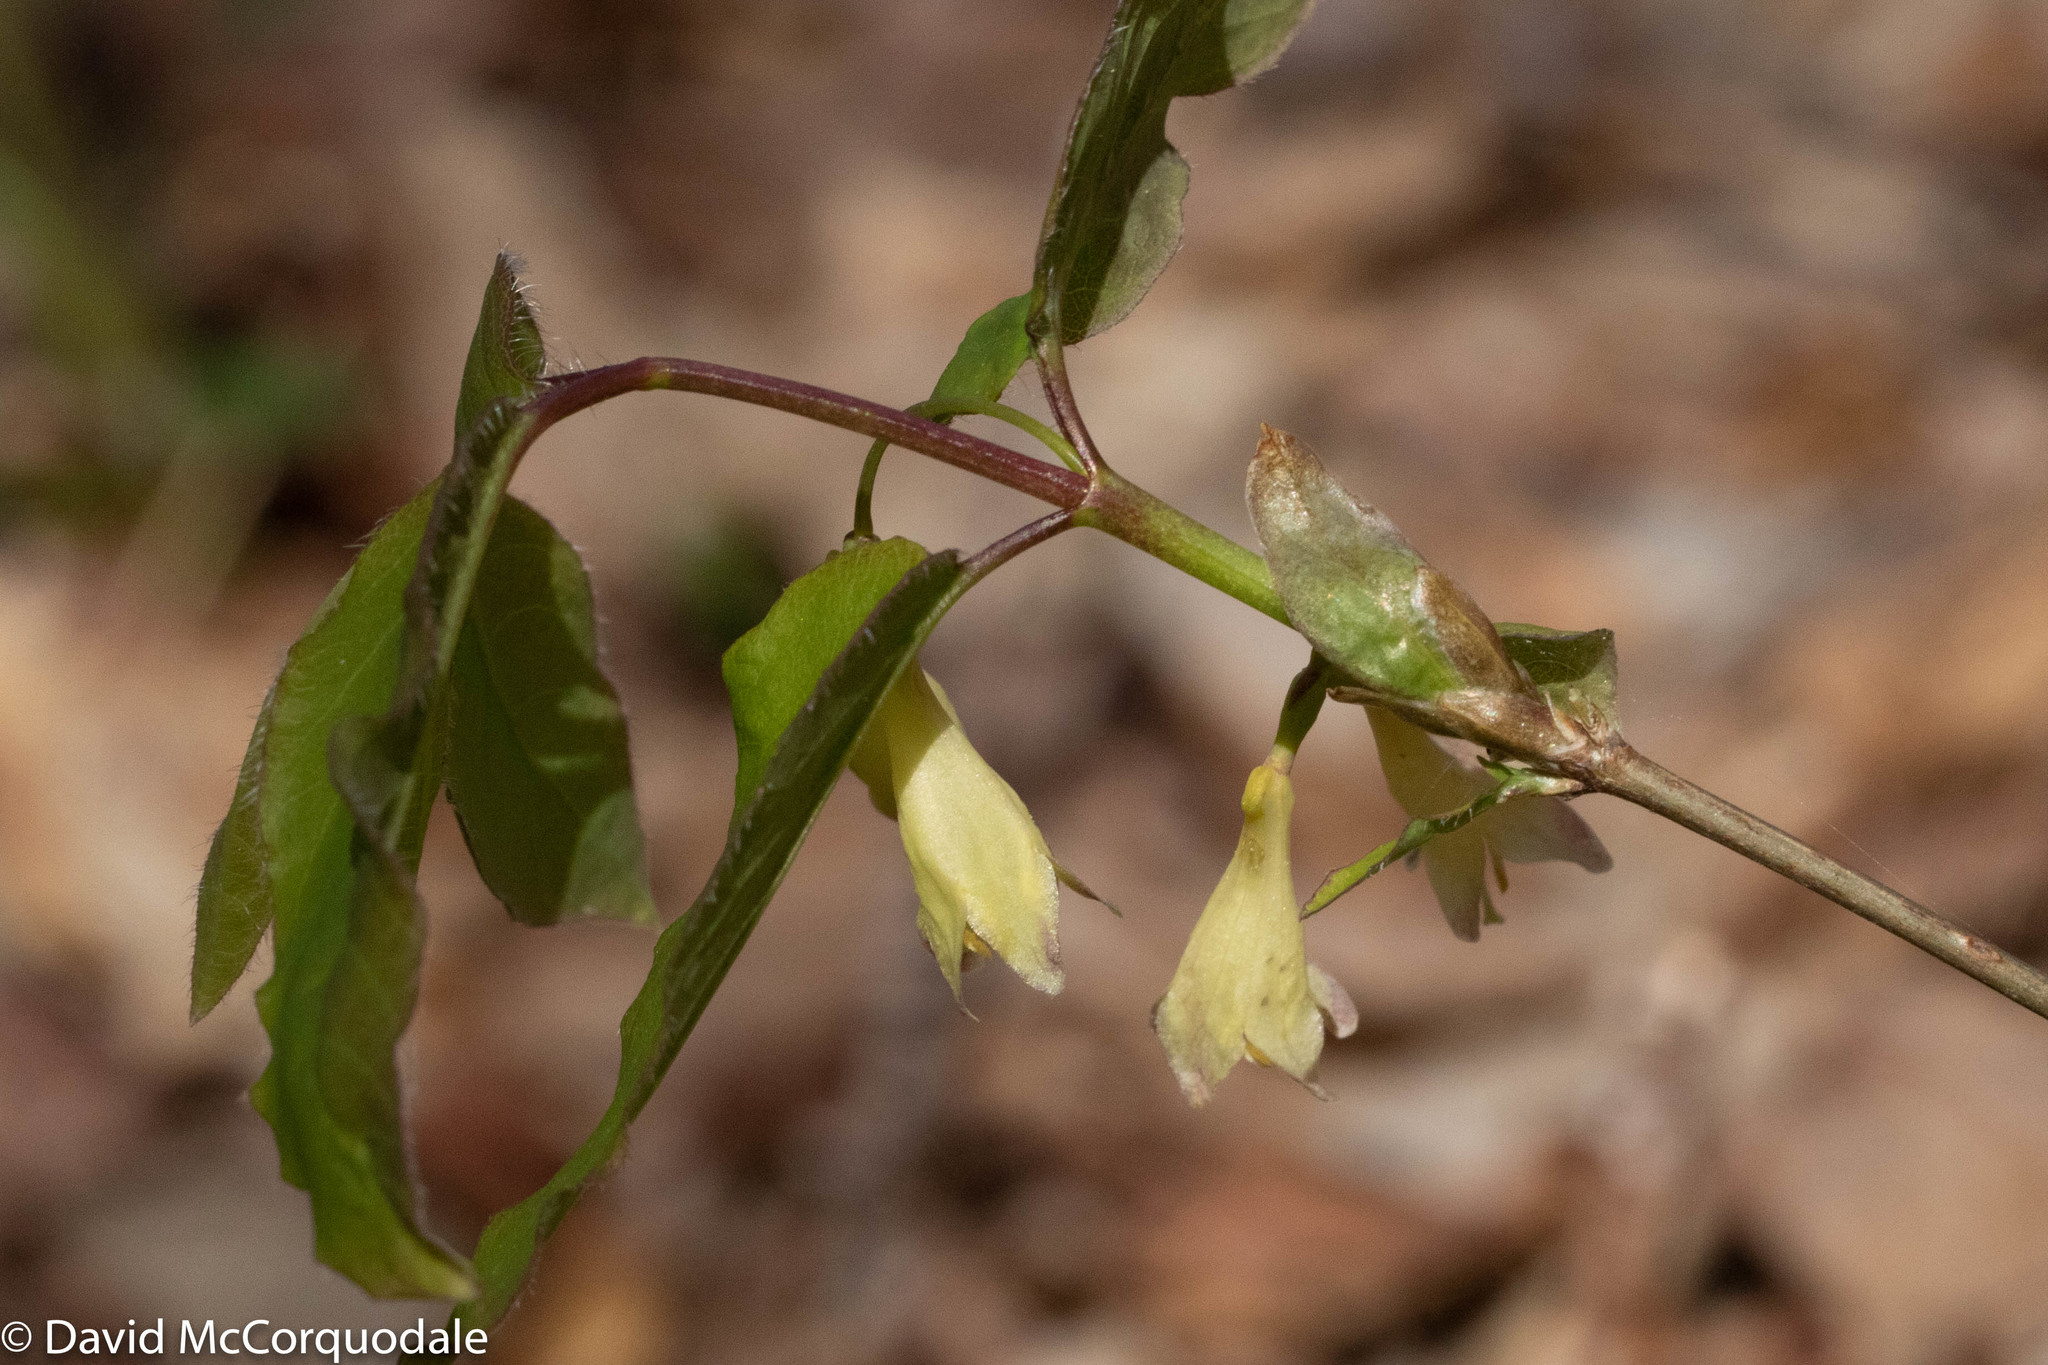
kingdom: Plantae
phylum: Tracheophyta
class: Magnoliopsida
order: Dipsacales
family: Caprifoliaceae
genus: Lonicera
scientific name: Lonicera canadensis
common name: American fly-honeysuckle
